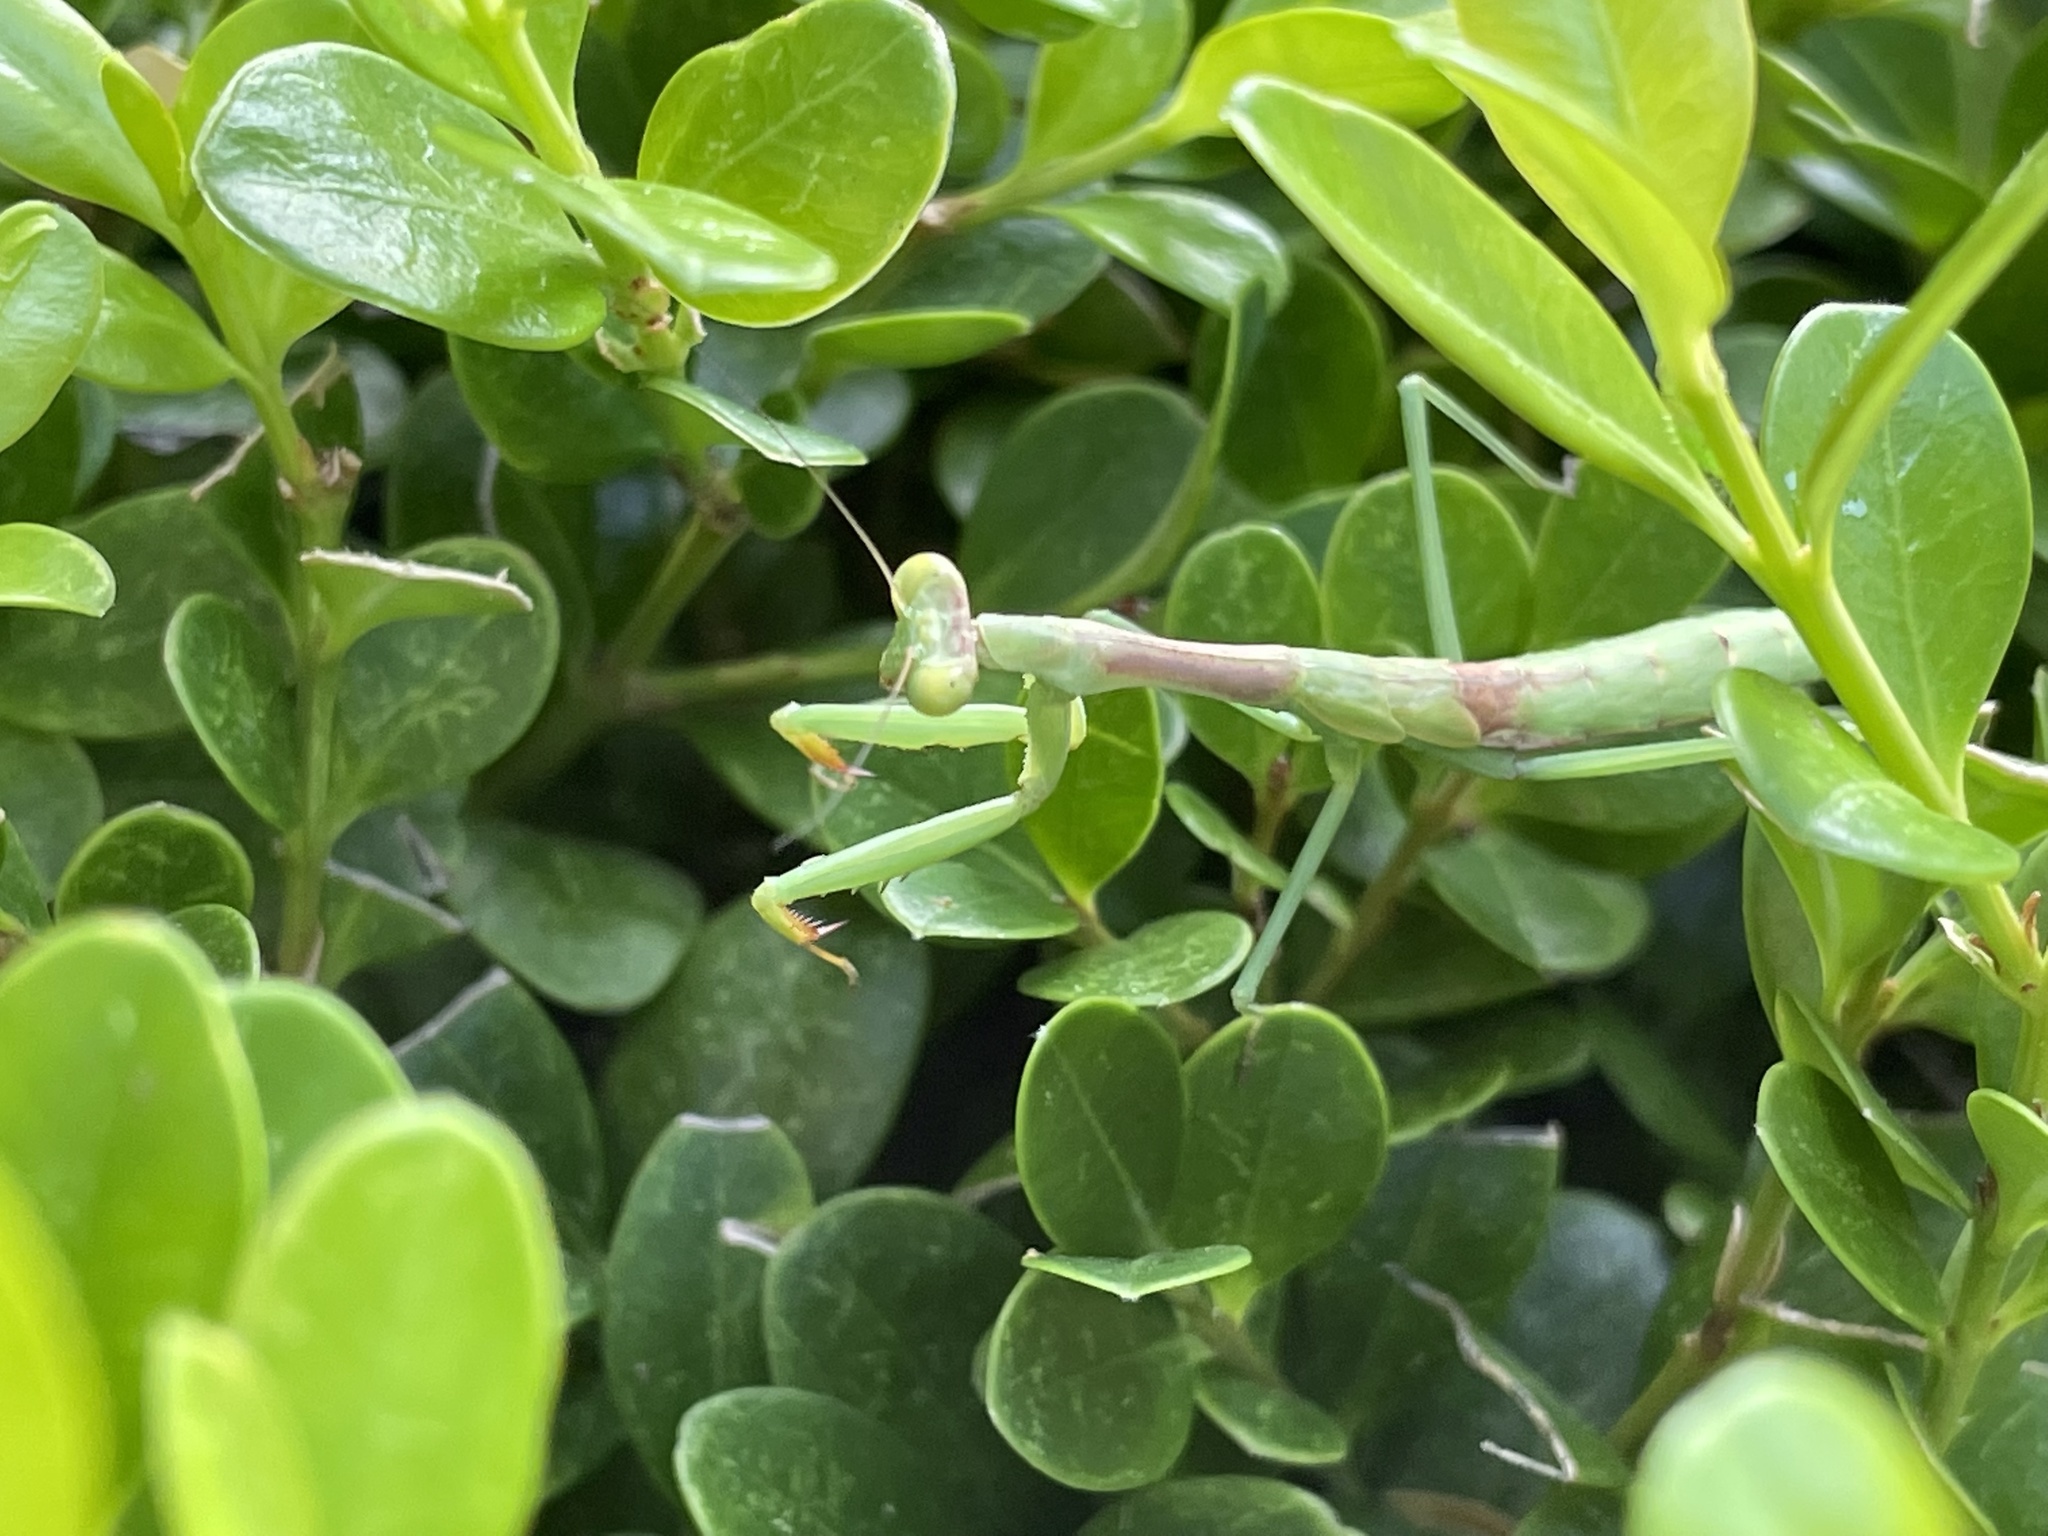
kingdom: Animalia
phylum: Arthropoda
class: Insecta
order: Mantodea
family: Mantidae
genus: Stagmomantis
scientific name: Stagmomantis carolina
